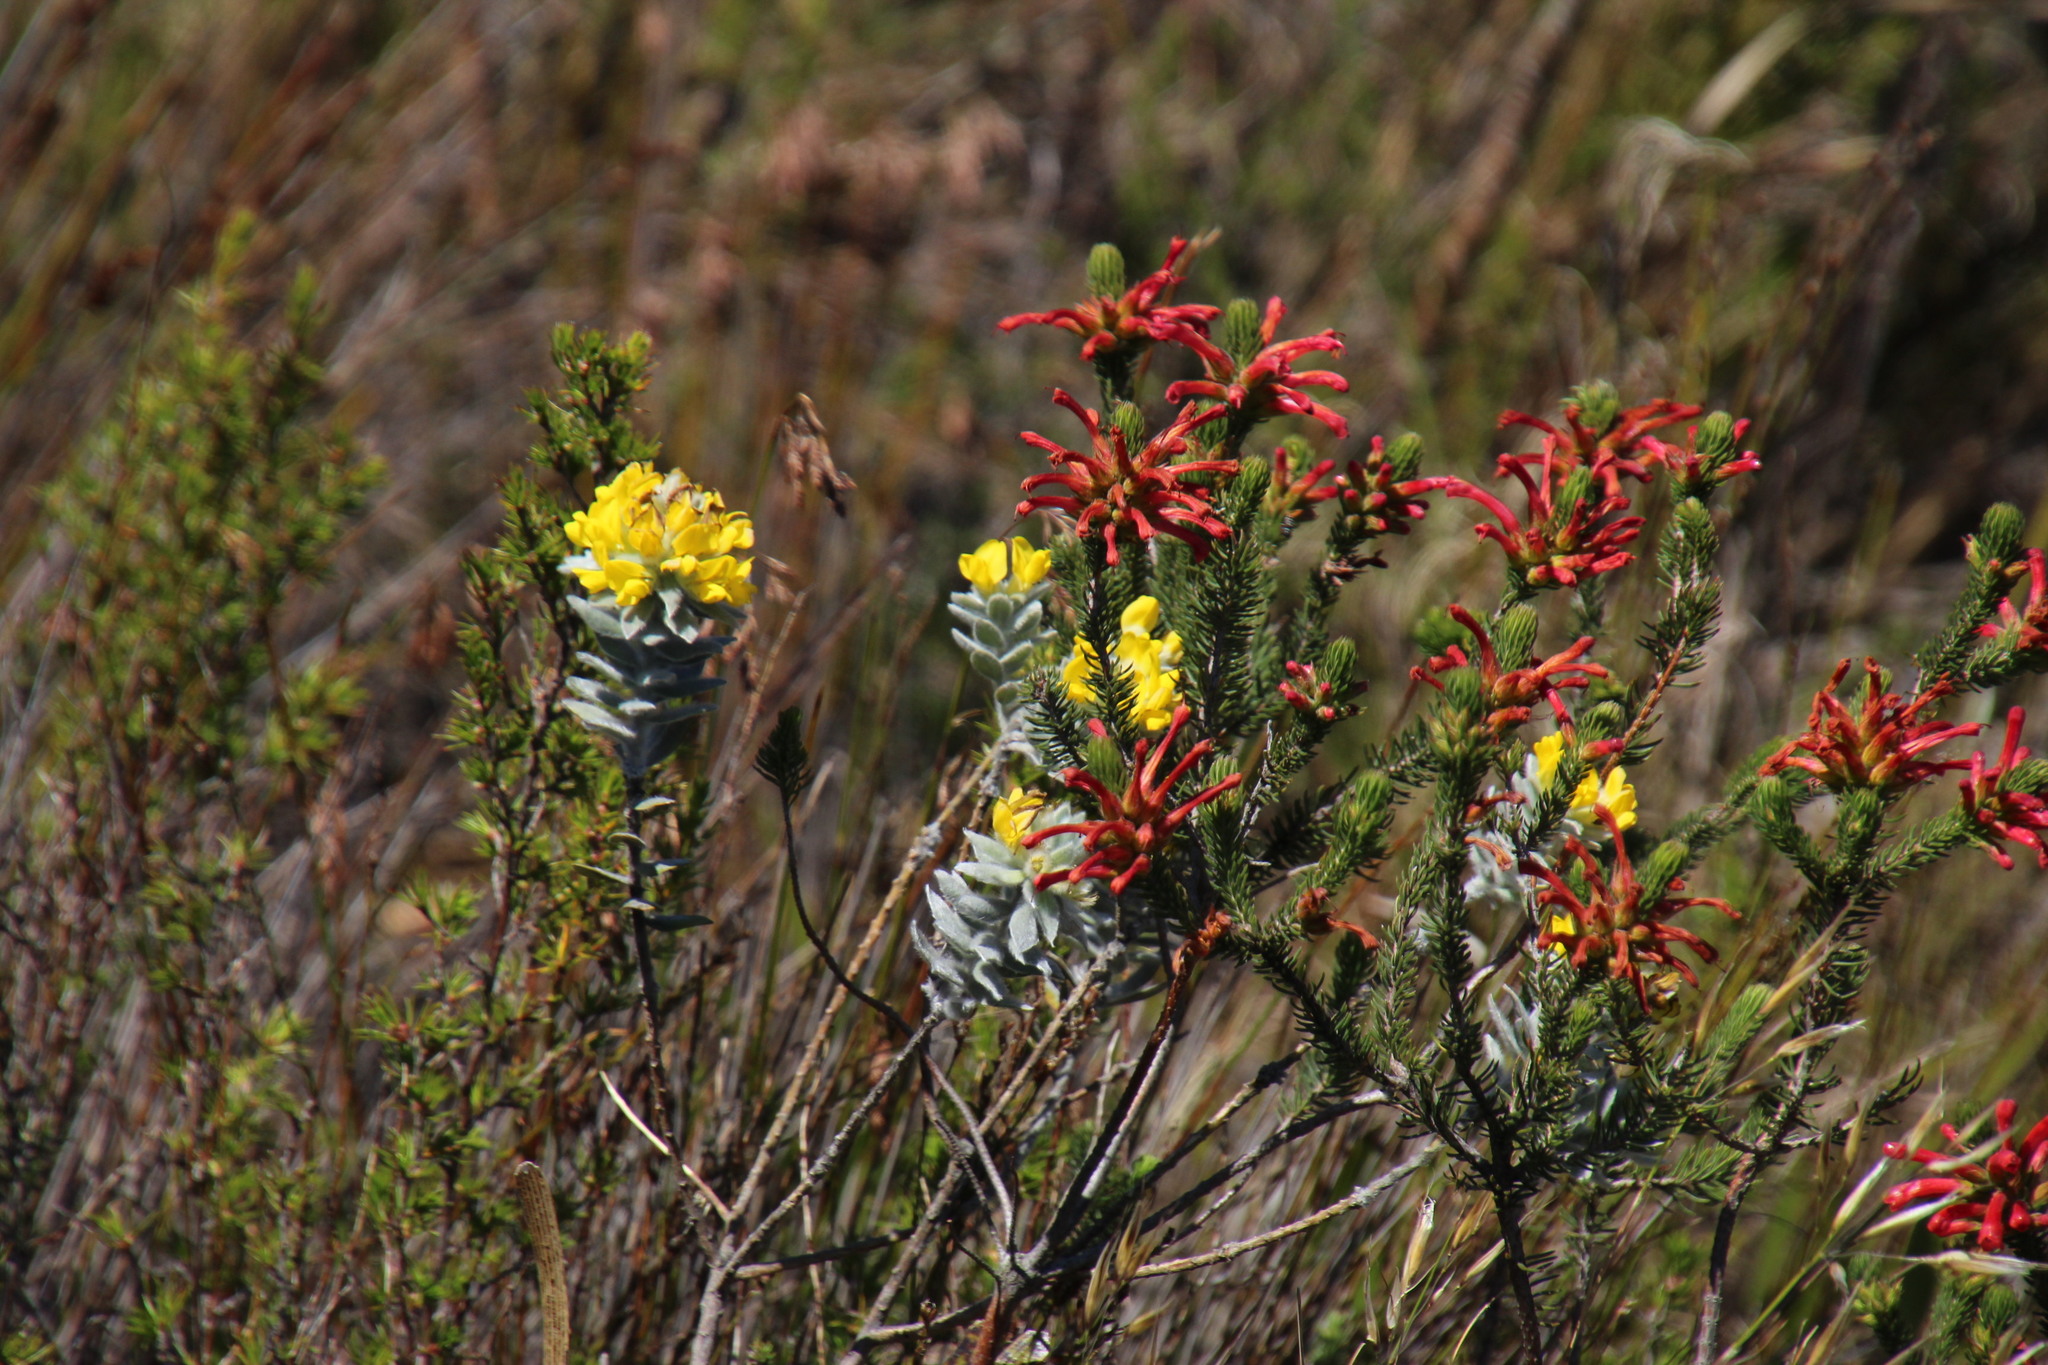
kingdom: Plantae
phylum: Tracheophyta
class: Magnoliopsida
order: Ericales
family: Ericaceae
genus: Erica
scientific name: Erica abietina
